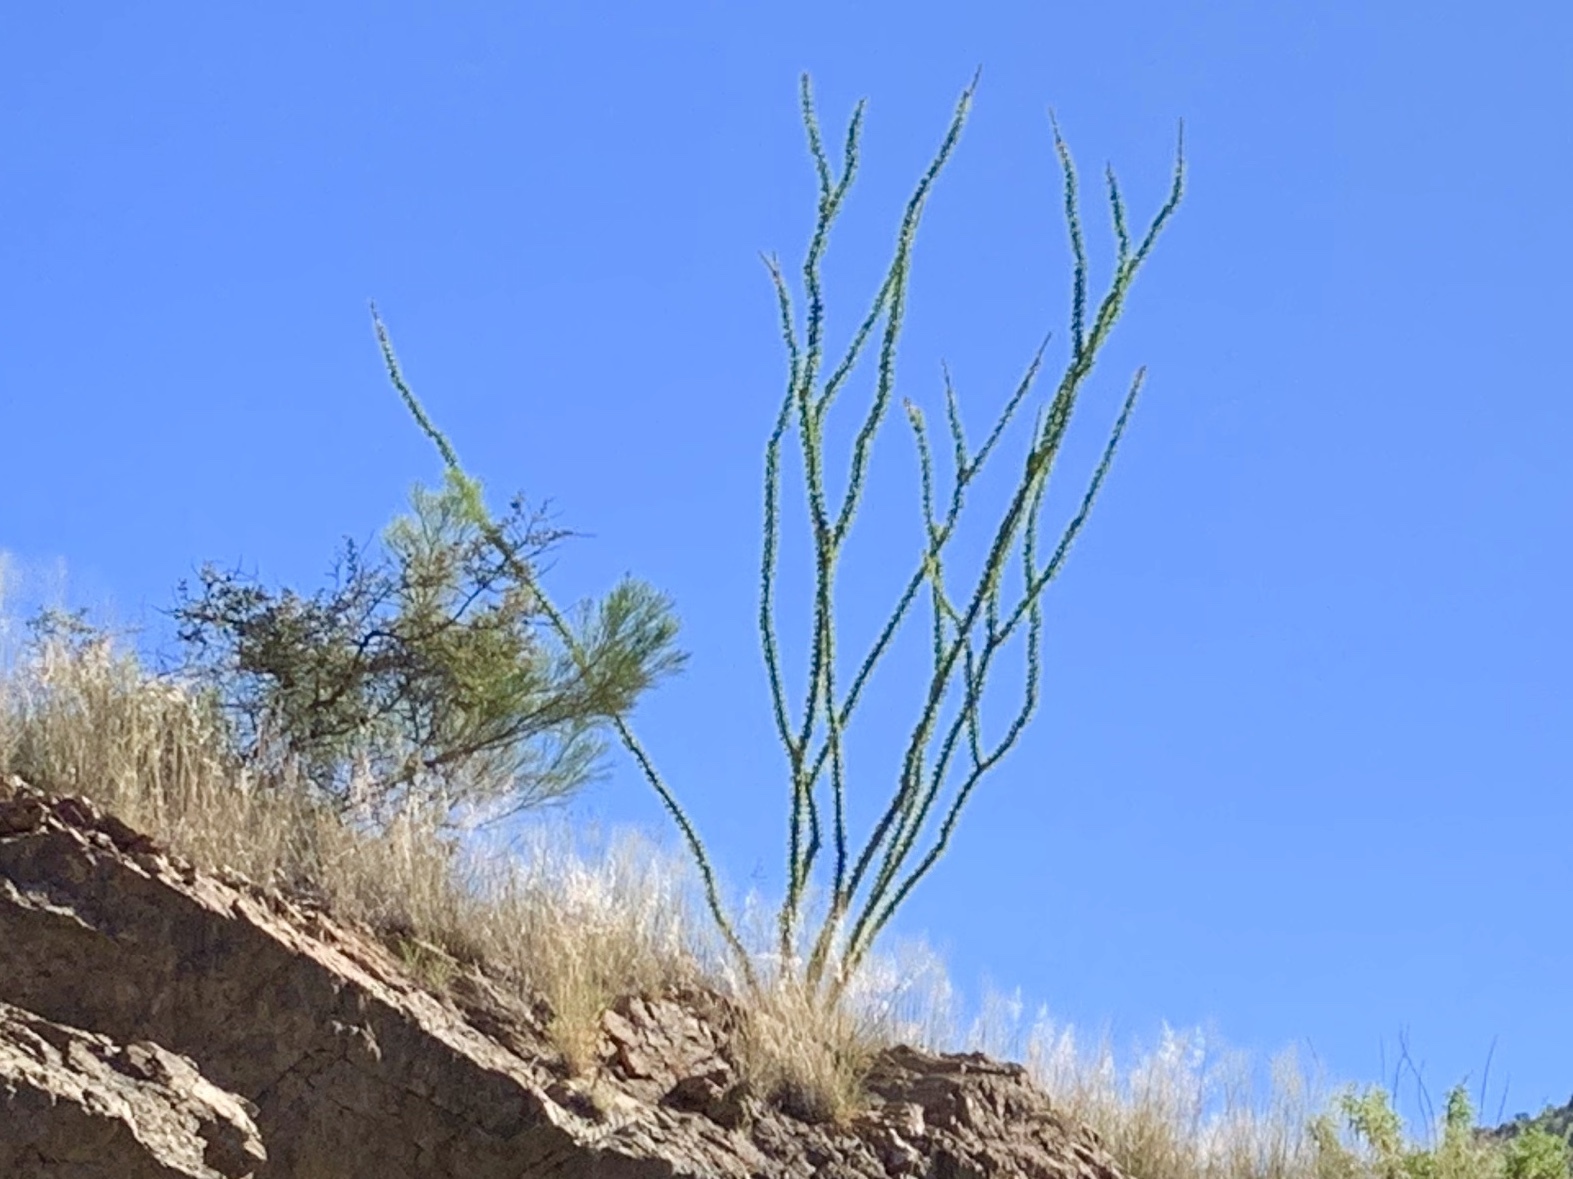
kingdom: Plantae
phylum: Tracheophyta
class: Magnoliopsida
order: Ericales
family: Fouquieriaceae
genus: Fouquieria
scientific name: Fouquieria splendens
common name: Vine-cactus
